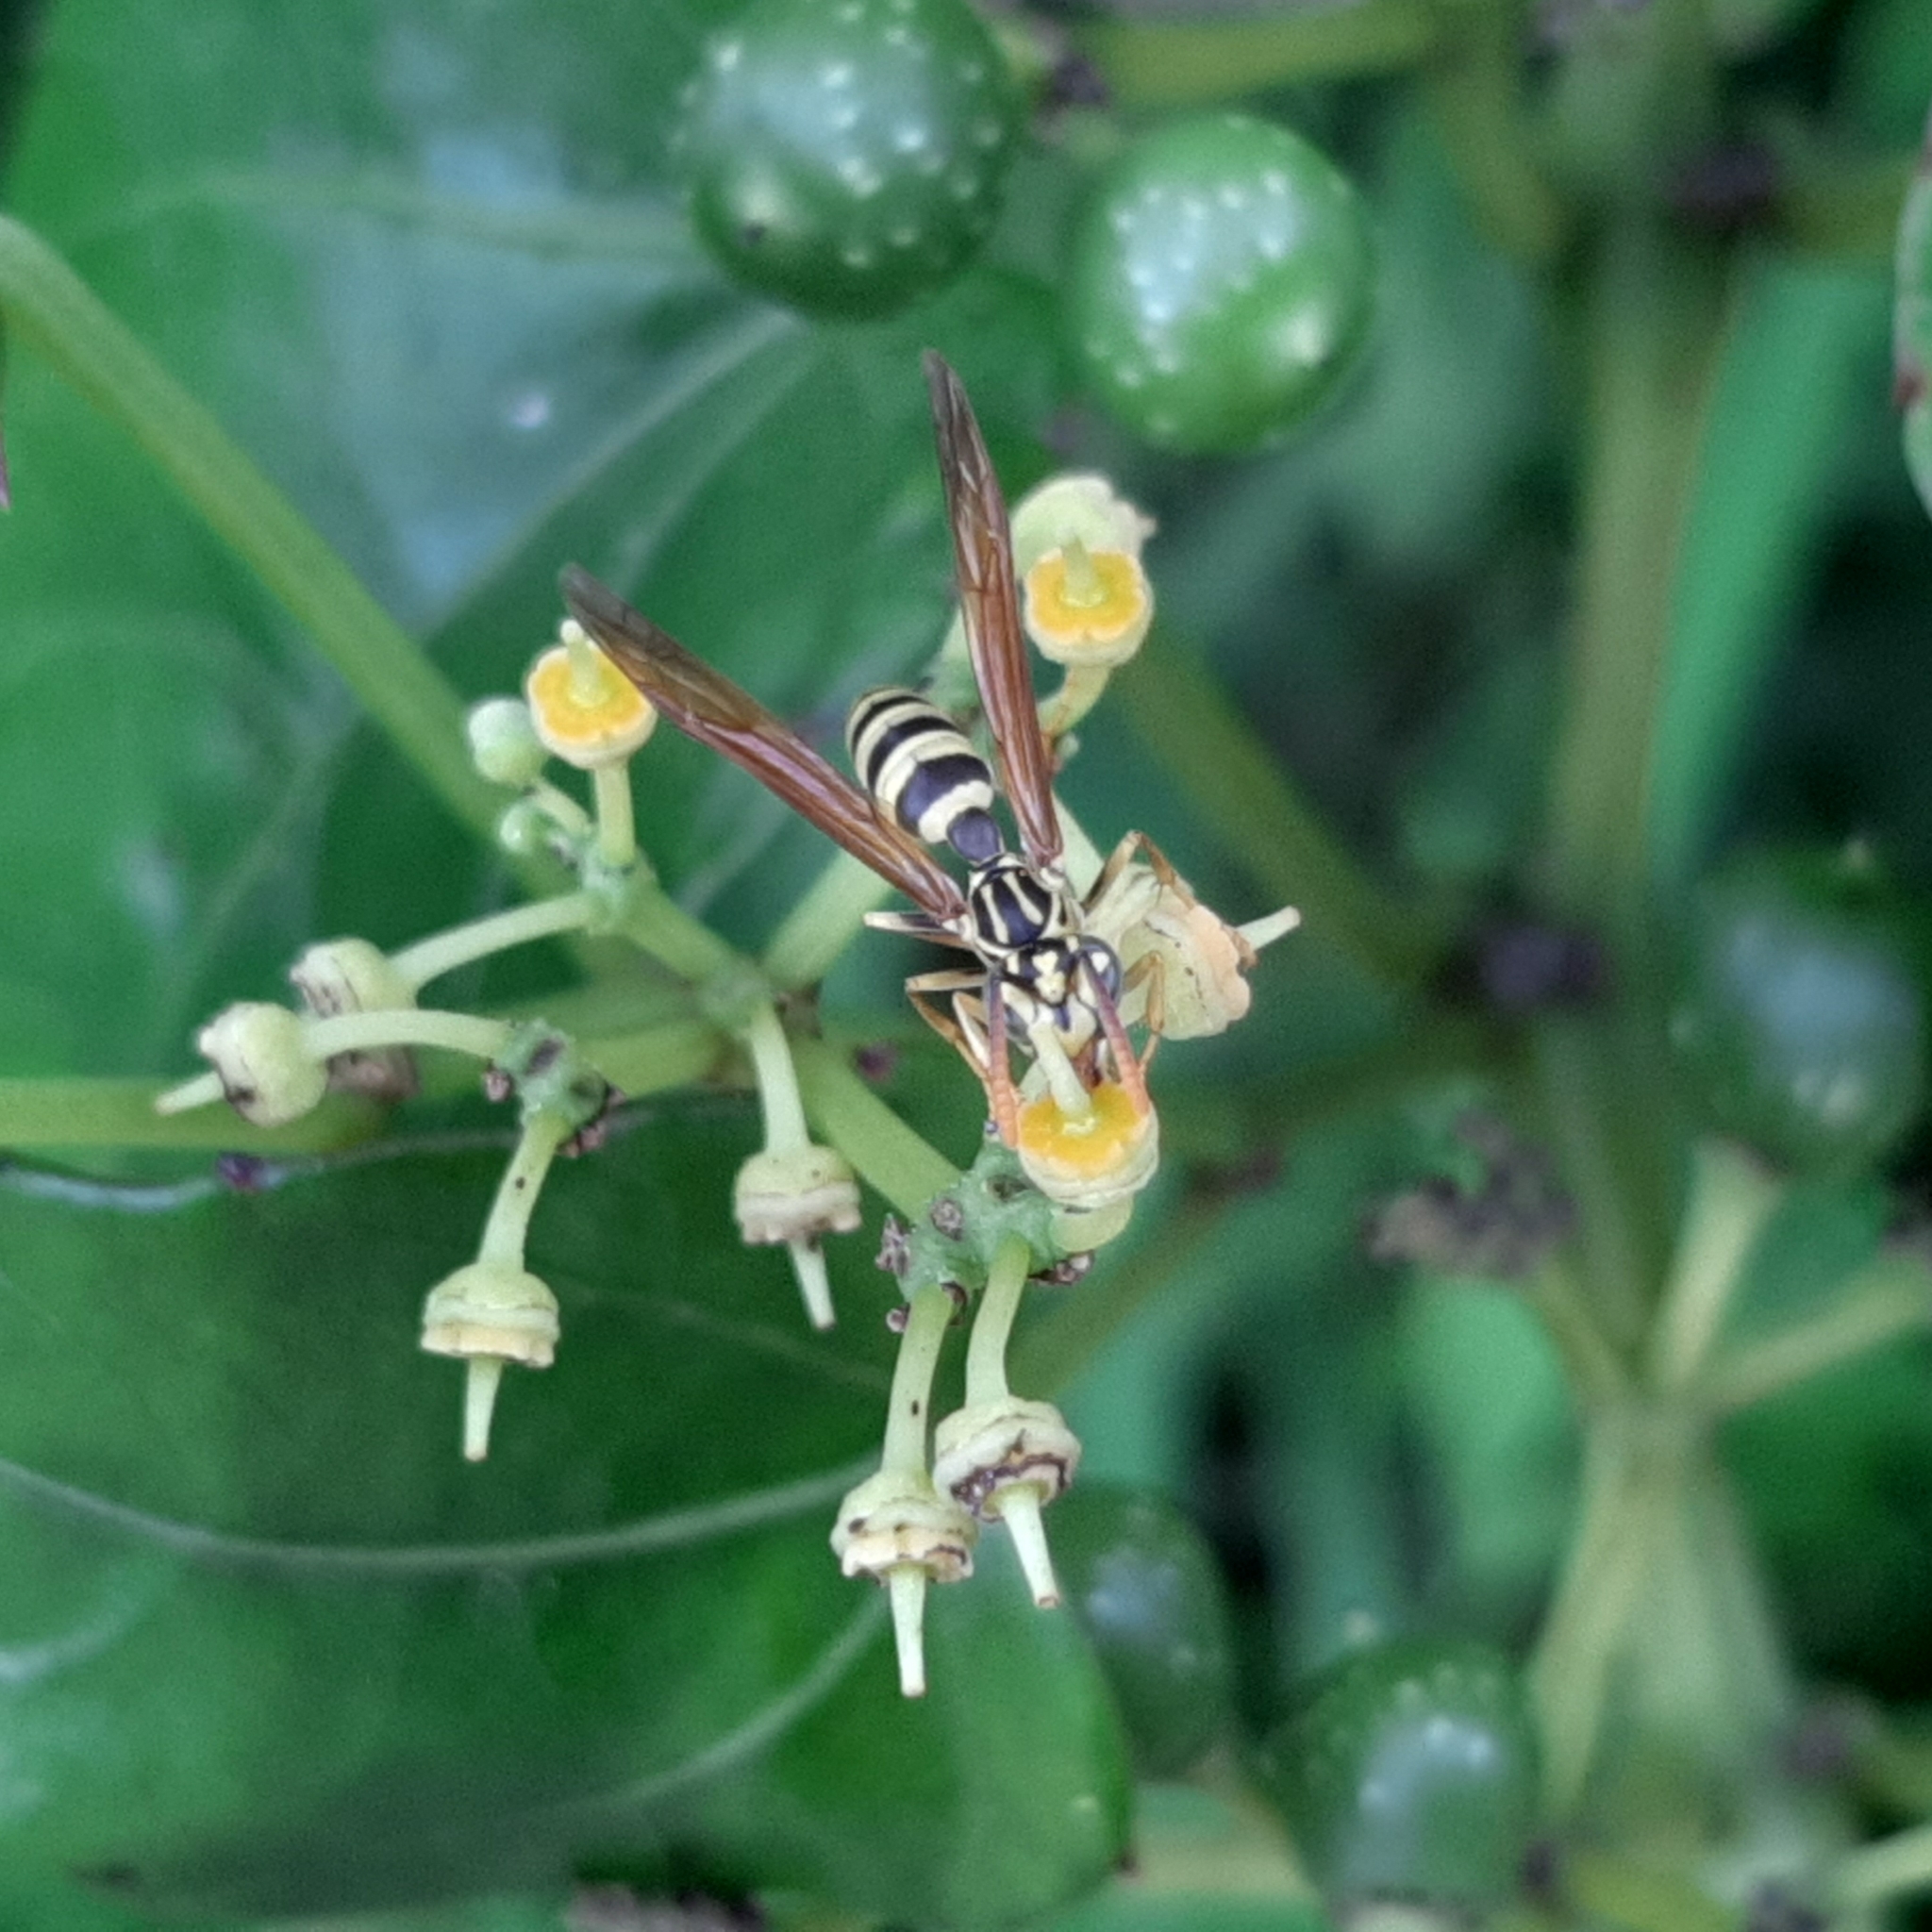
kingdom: Animalia
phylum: Arthropoda
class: Insecta
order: Hymenoptera
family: Vespidae
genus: Agelaia
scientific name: Agelaia areata
